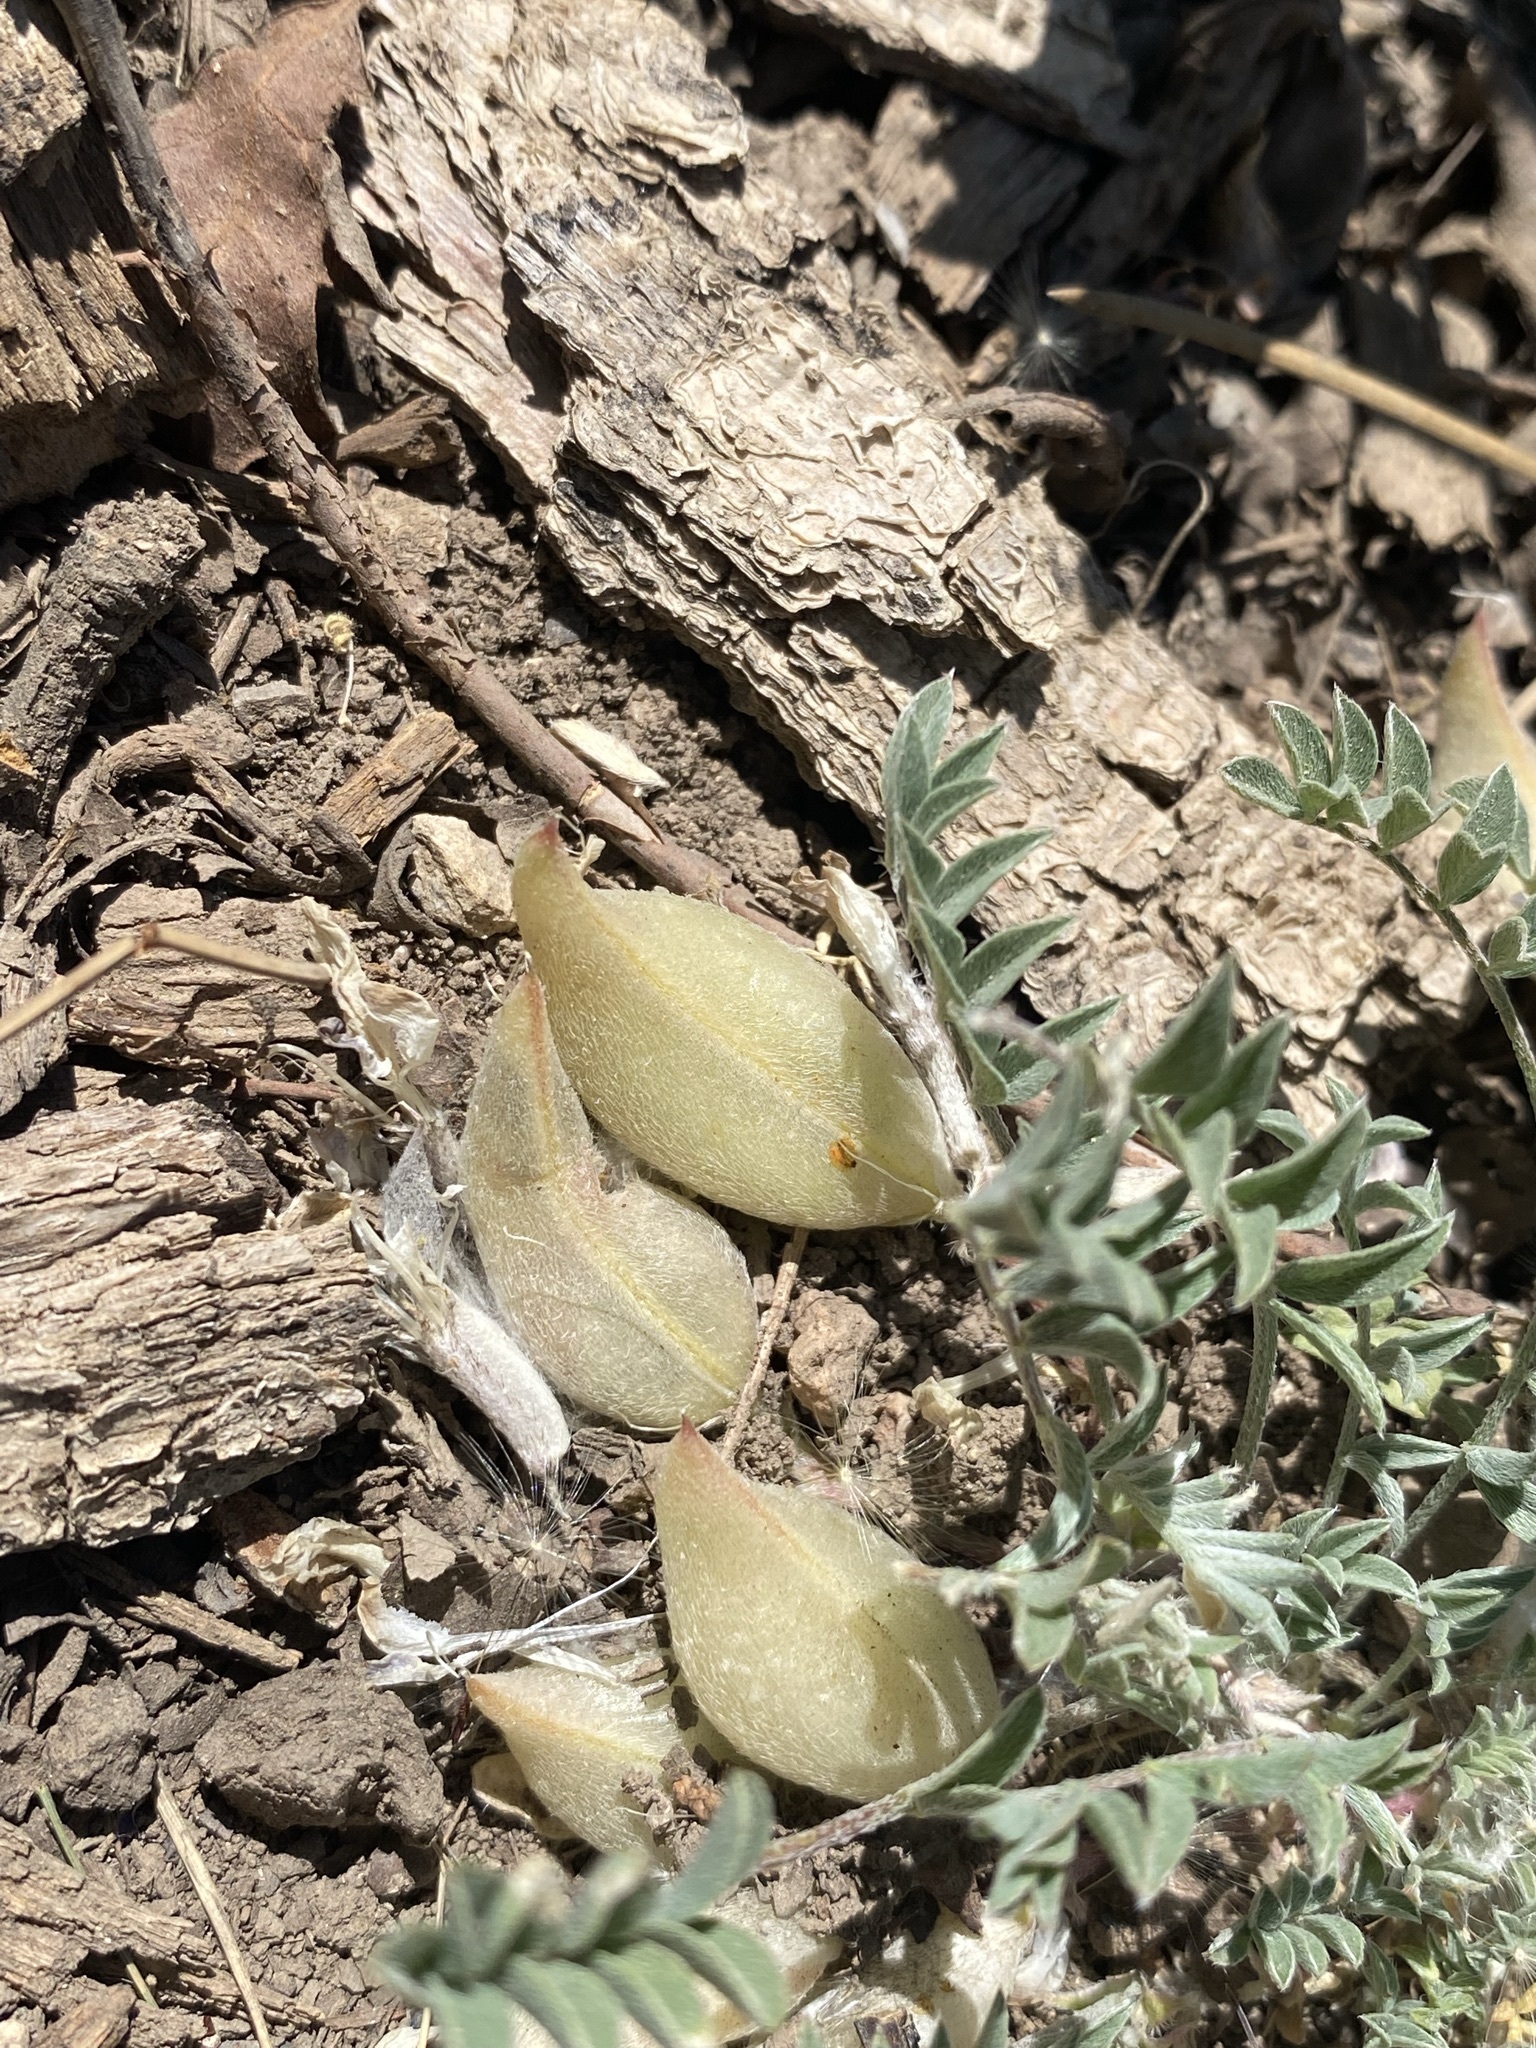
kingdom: Plantae
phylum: Tracheophyta
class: Magnoliopsida
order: Fabales
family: Fabaceae
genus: Astragalus
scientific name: Astragalus argophyllus
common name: Silverleaf milk-vetch
